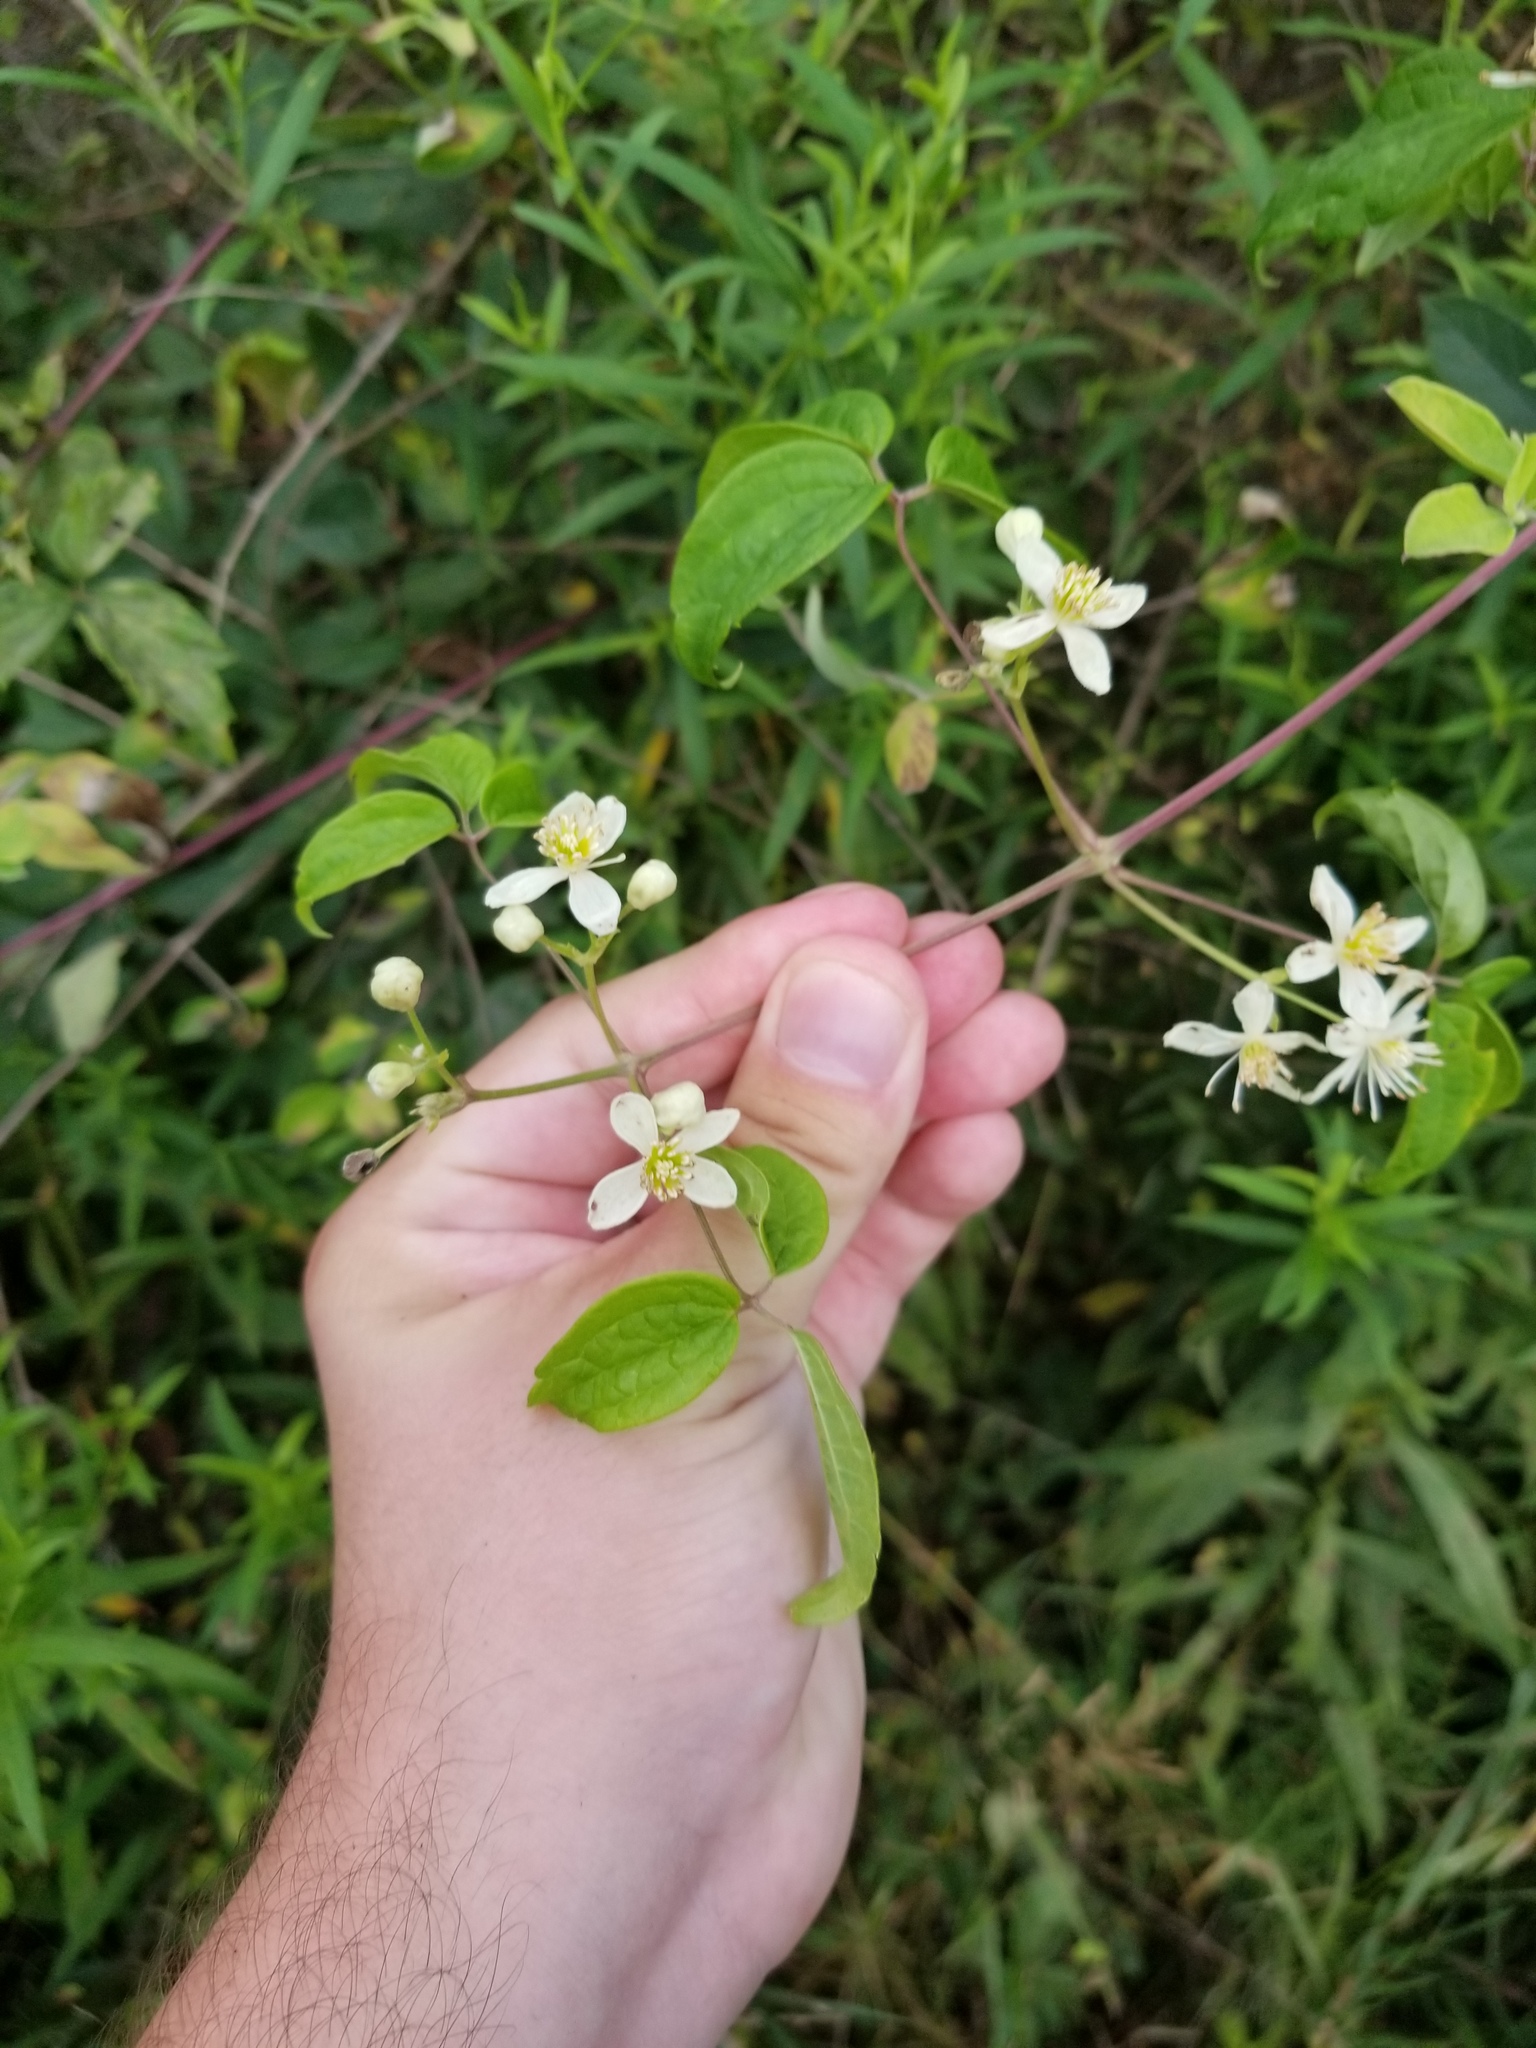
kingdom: Plantae
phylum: Tracheophyta
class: Magnoliopsida
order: Ranunculales
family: Ranunculaceae
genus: Clematis
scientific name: Clematis virginiana
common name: Virgin's-bower
